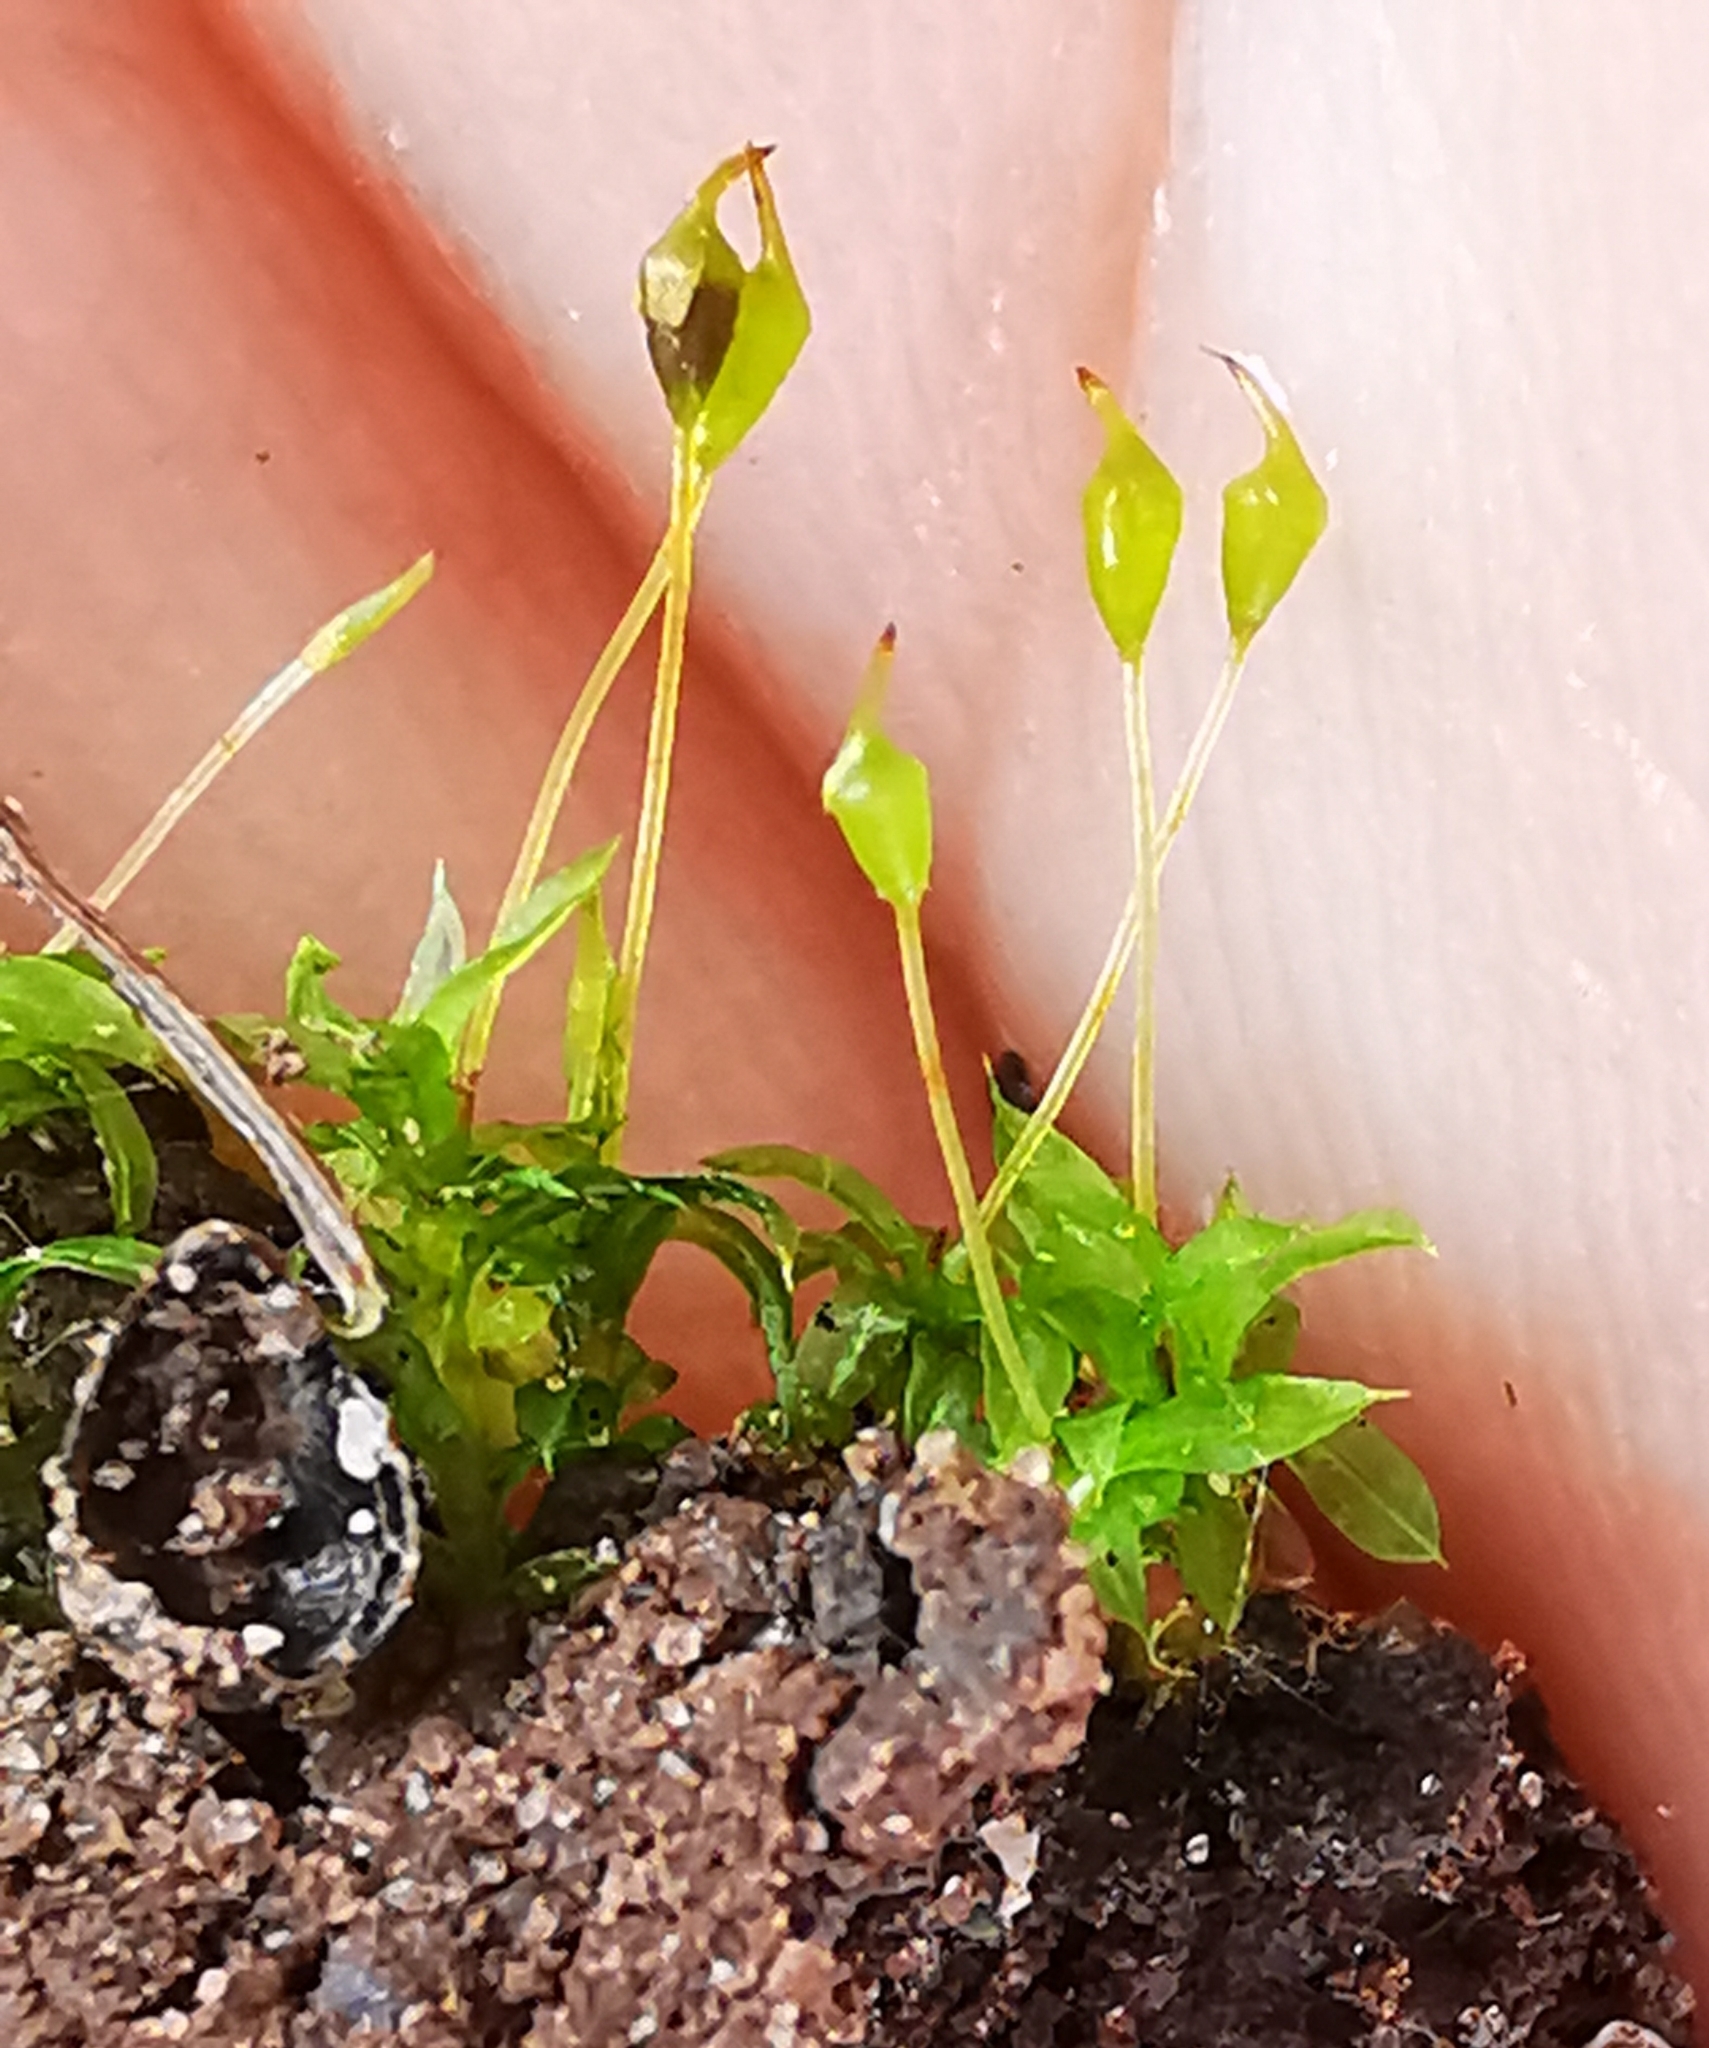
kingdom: Plantae
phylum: Bryophyta
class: Bryopsida
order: Pottiales
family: Pottiaceae
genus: Tortula
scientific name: Tortula truncata
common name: Truncated screw moss
